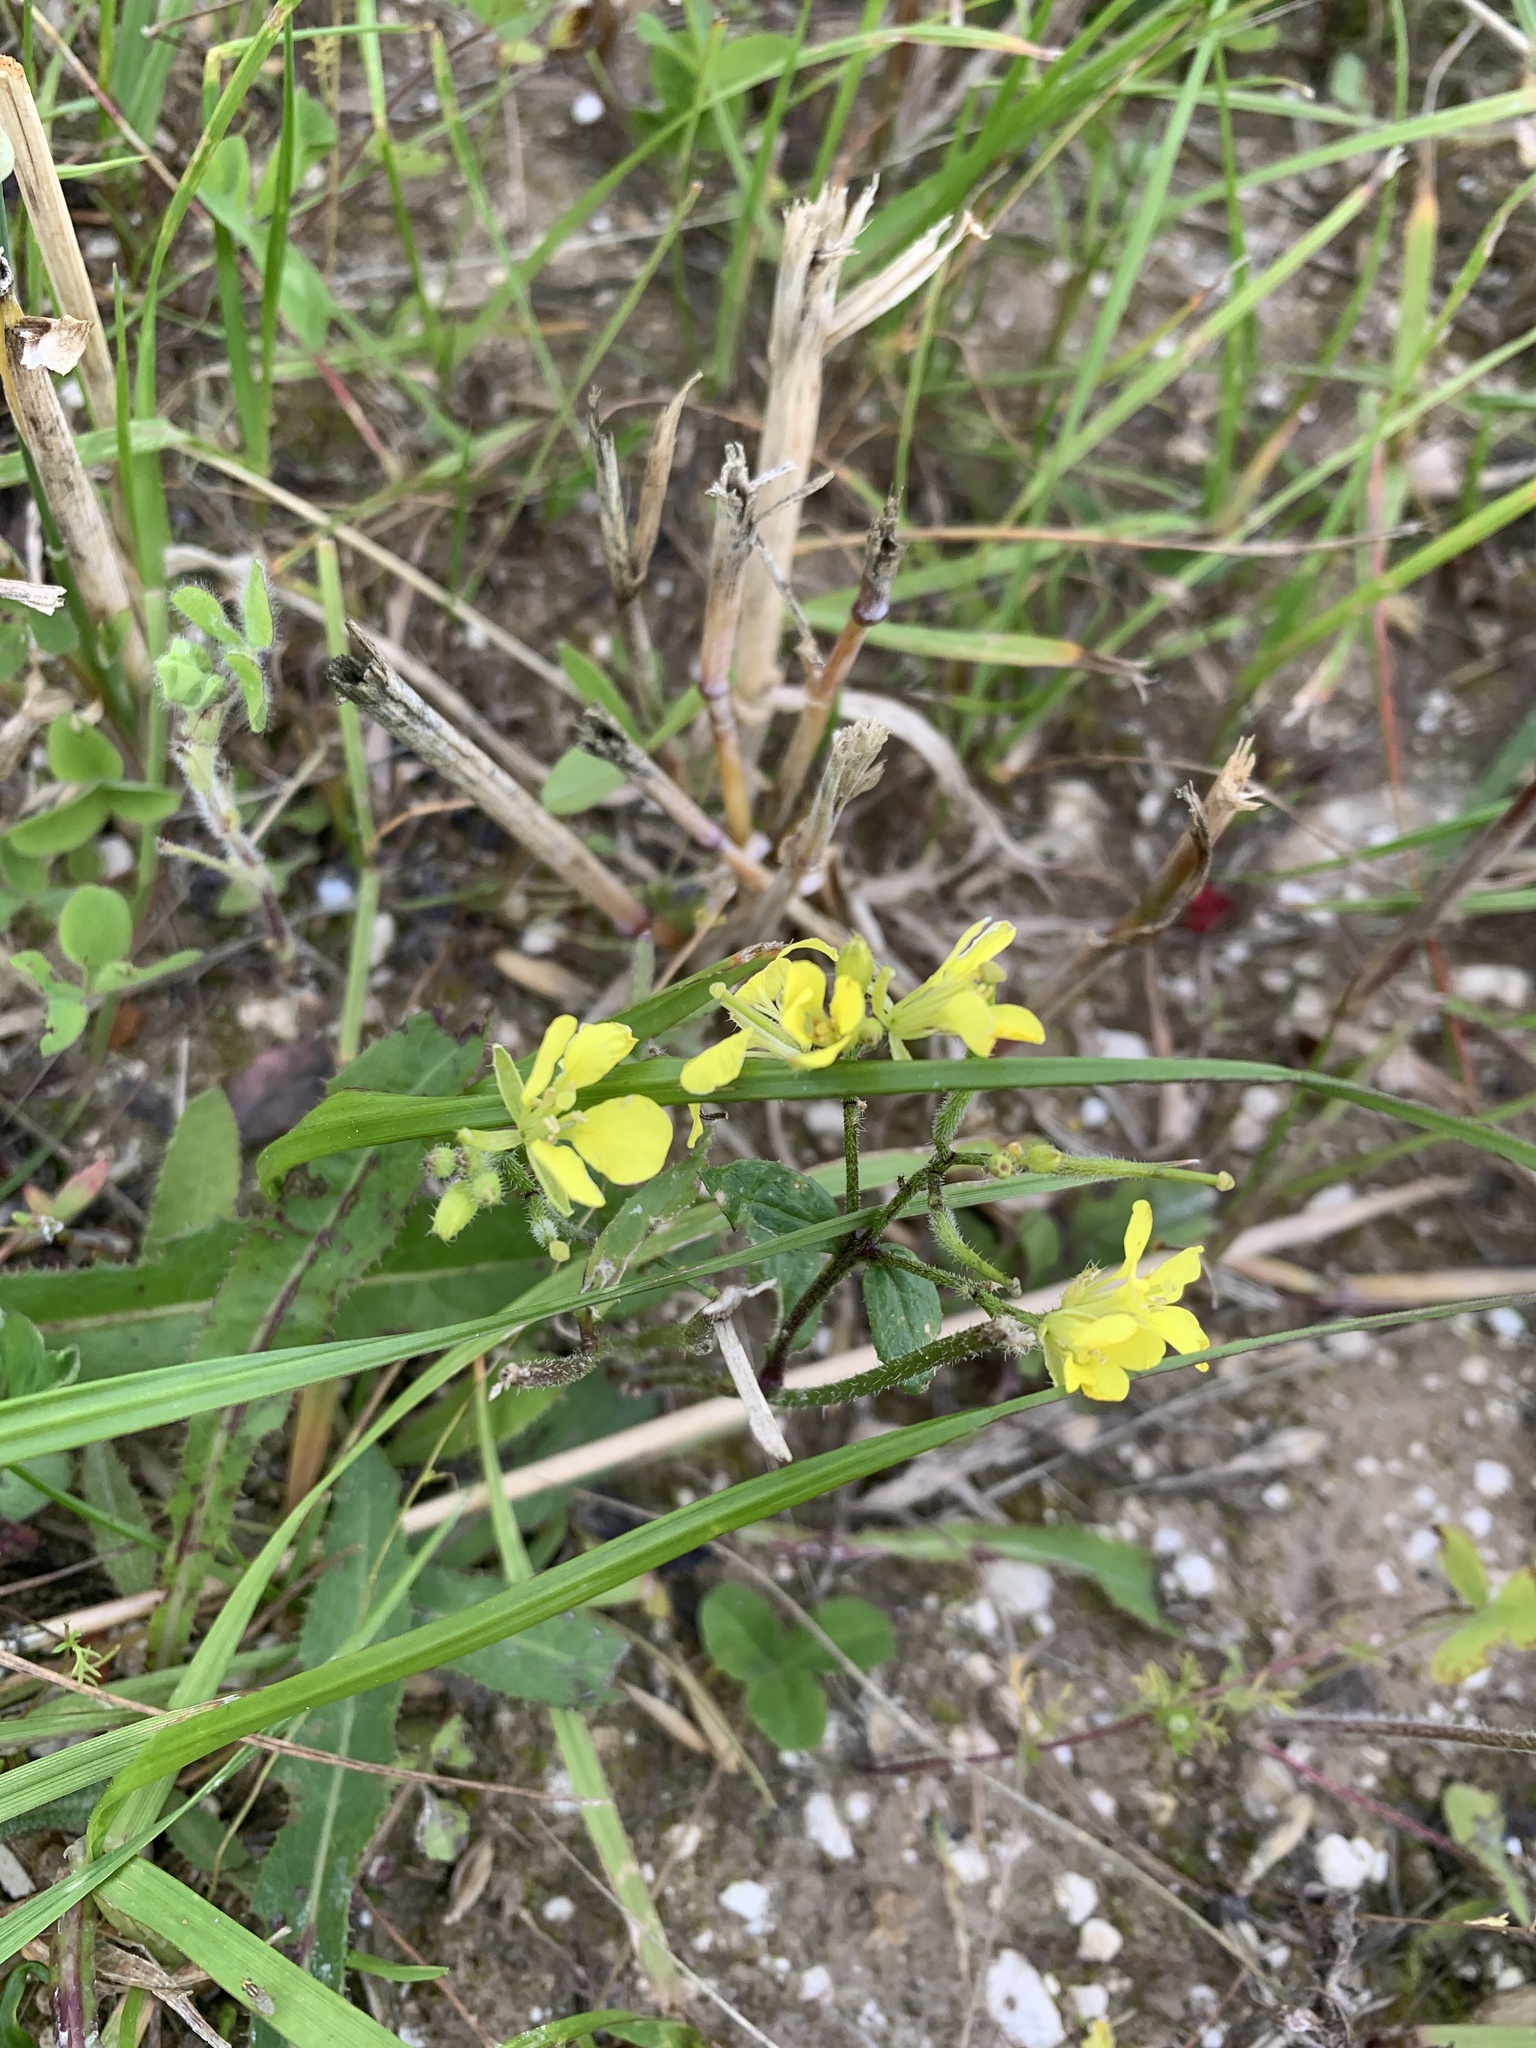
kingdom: Plantae
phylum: Tracheophyta
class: Magnoliopsida
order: Brassicales
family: Brassicaceae
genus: Sinapis
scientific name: Sinapis arvensis
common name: Charlock
